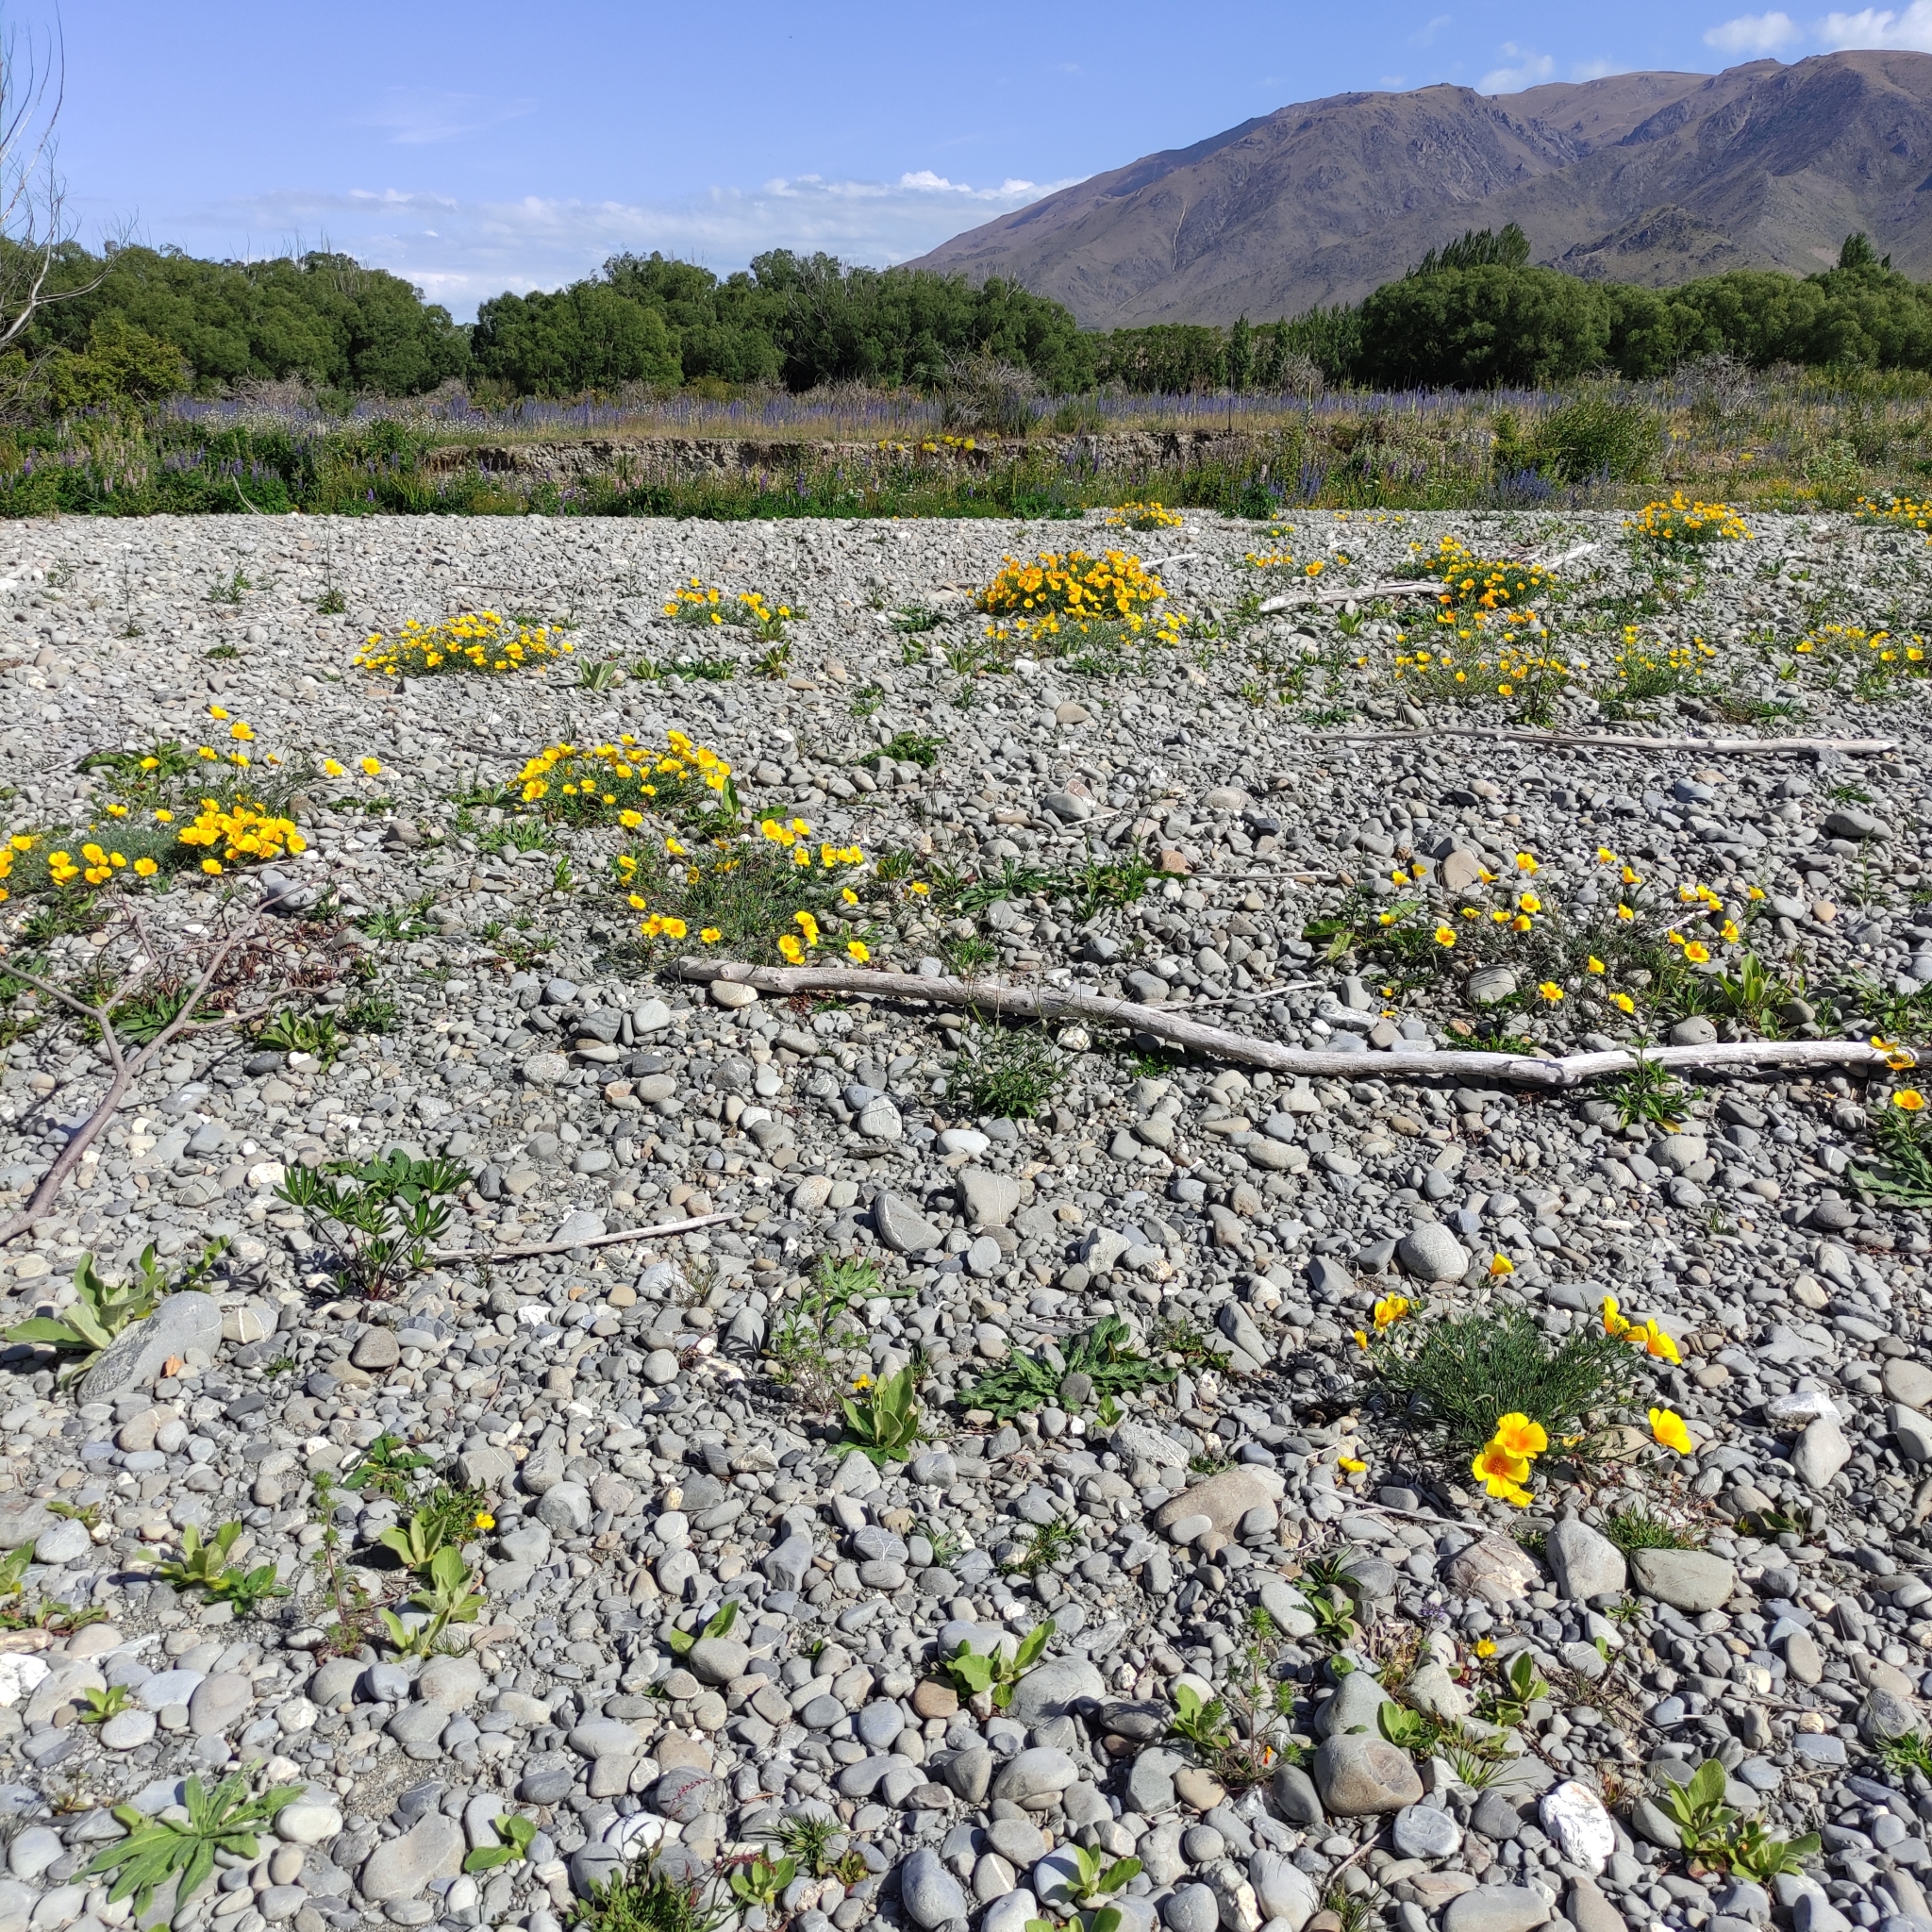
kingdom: Plantae
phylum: Tracheophyta
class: Magnoliopsida
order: Ranunculales
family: Papaveraceae
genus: Eschscholzia
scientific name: Eschscholzia californica
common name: California poppy
